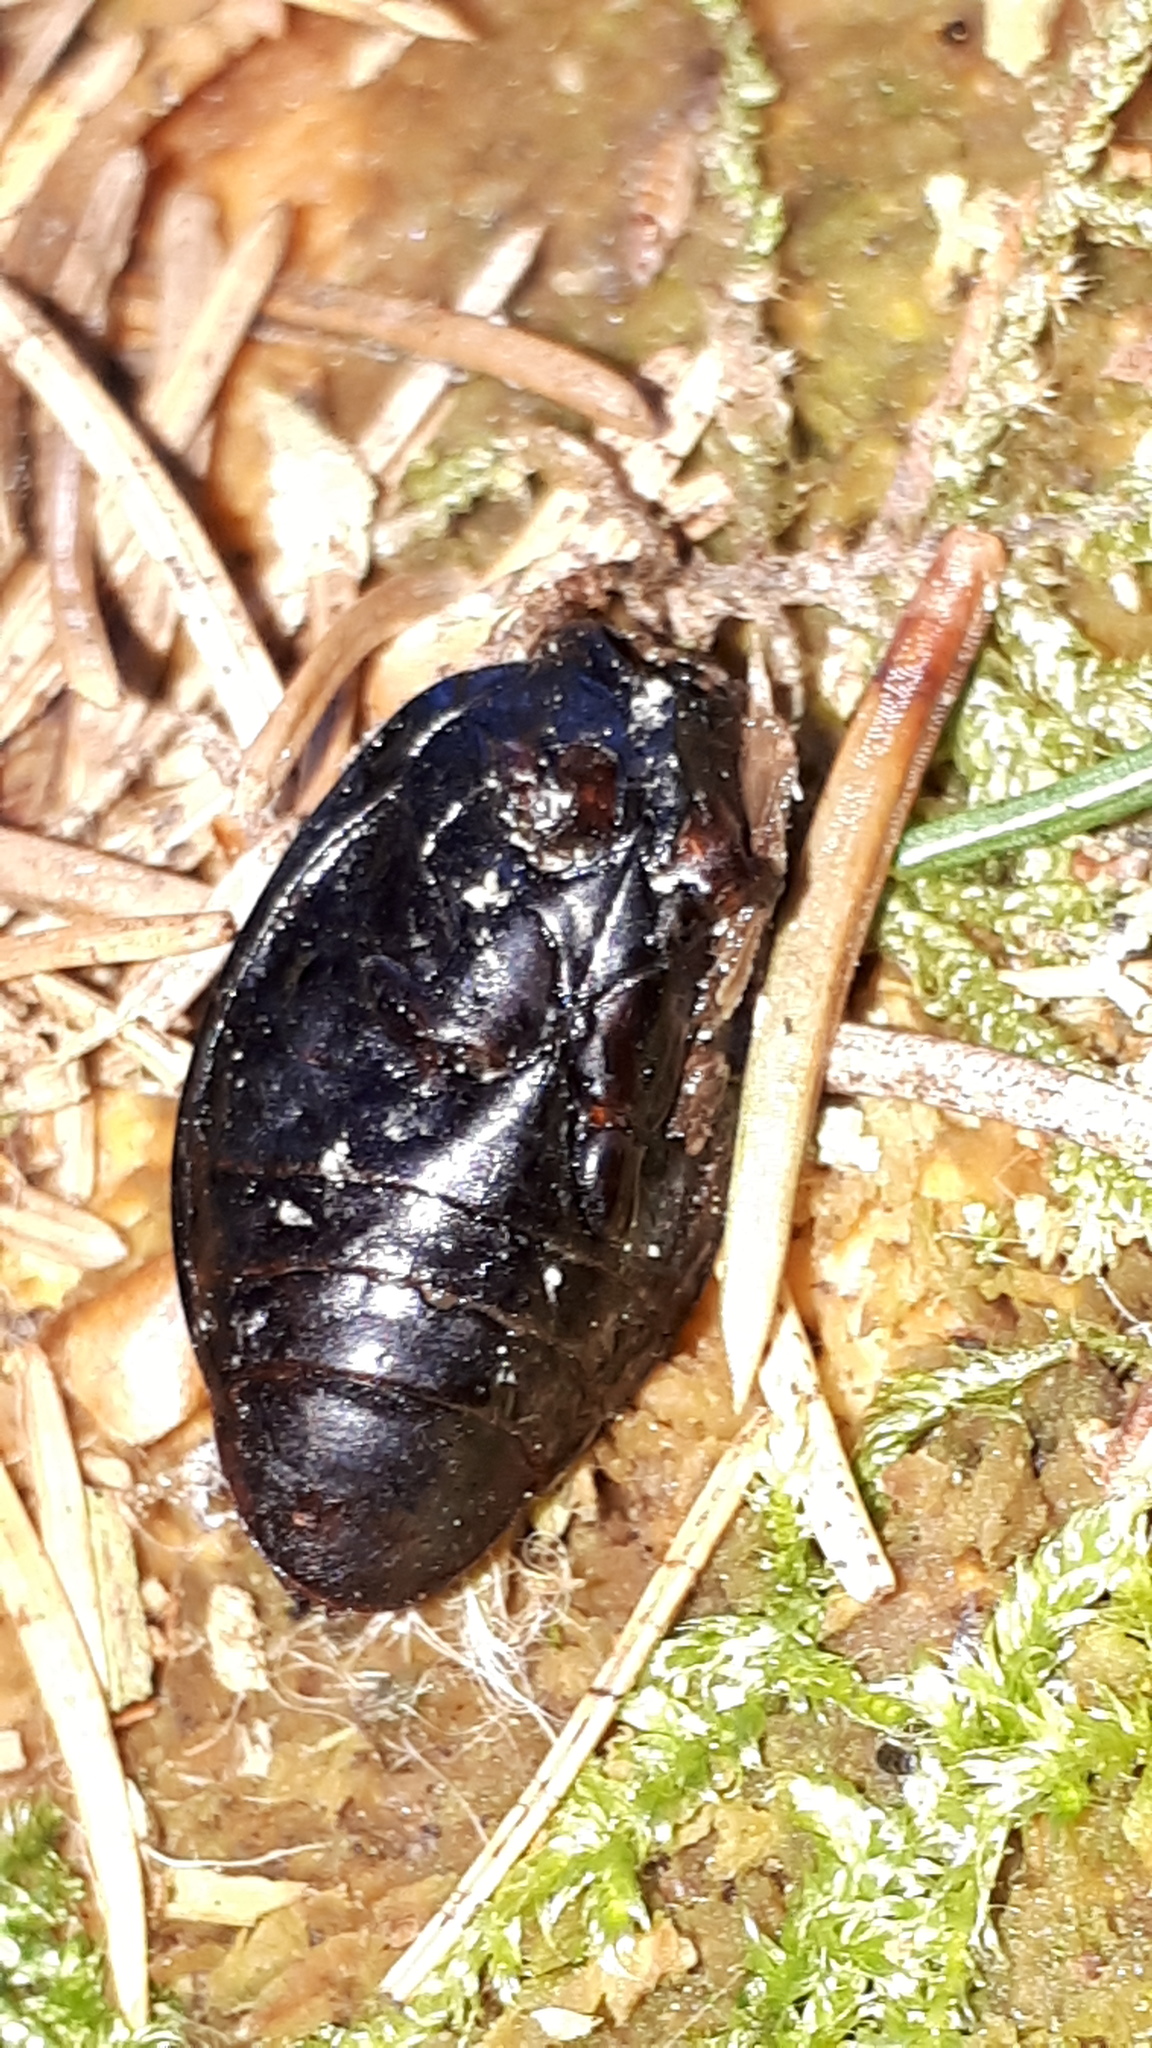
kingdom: Animalia
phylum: Arthropoda
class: Insecta
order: Coleoptera
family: Carabidae
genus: Carabus
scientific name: Carabus auronitens
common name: Carabus auronitens
